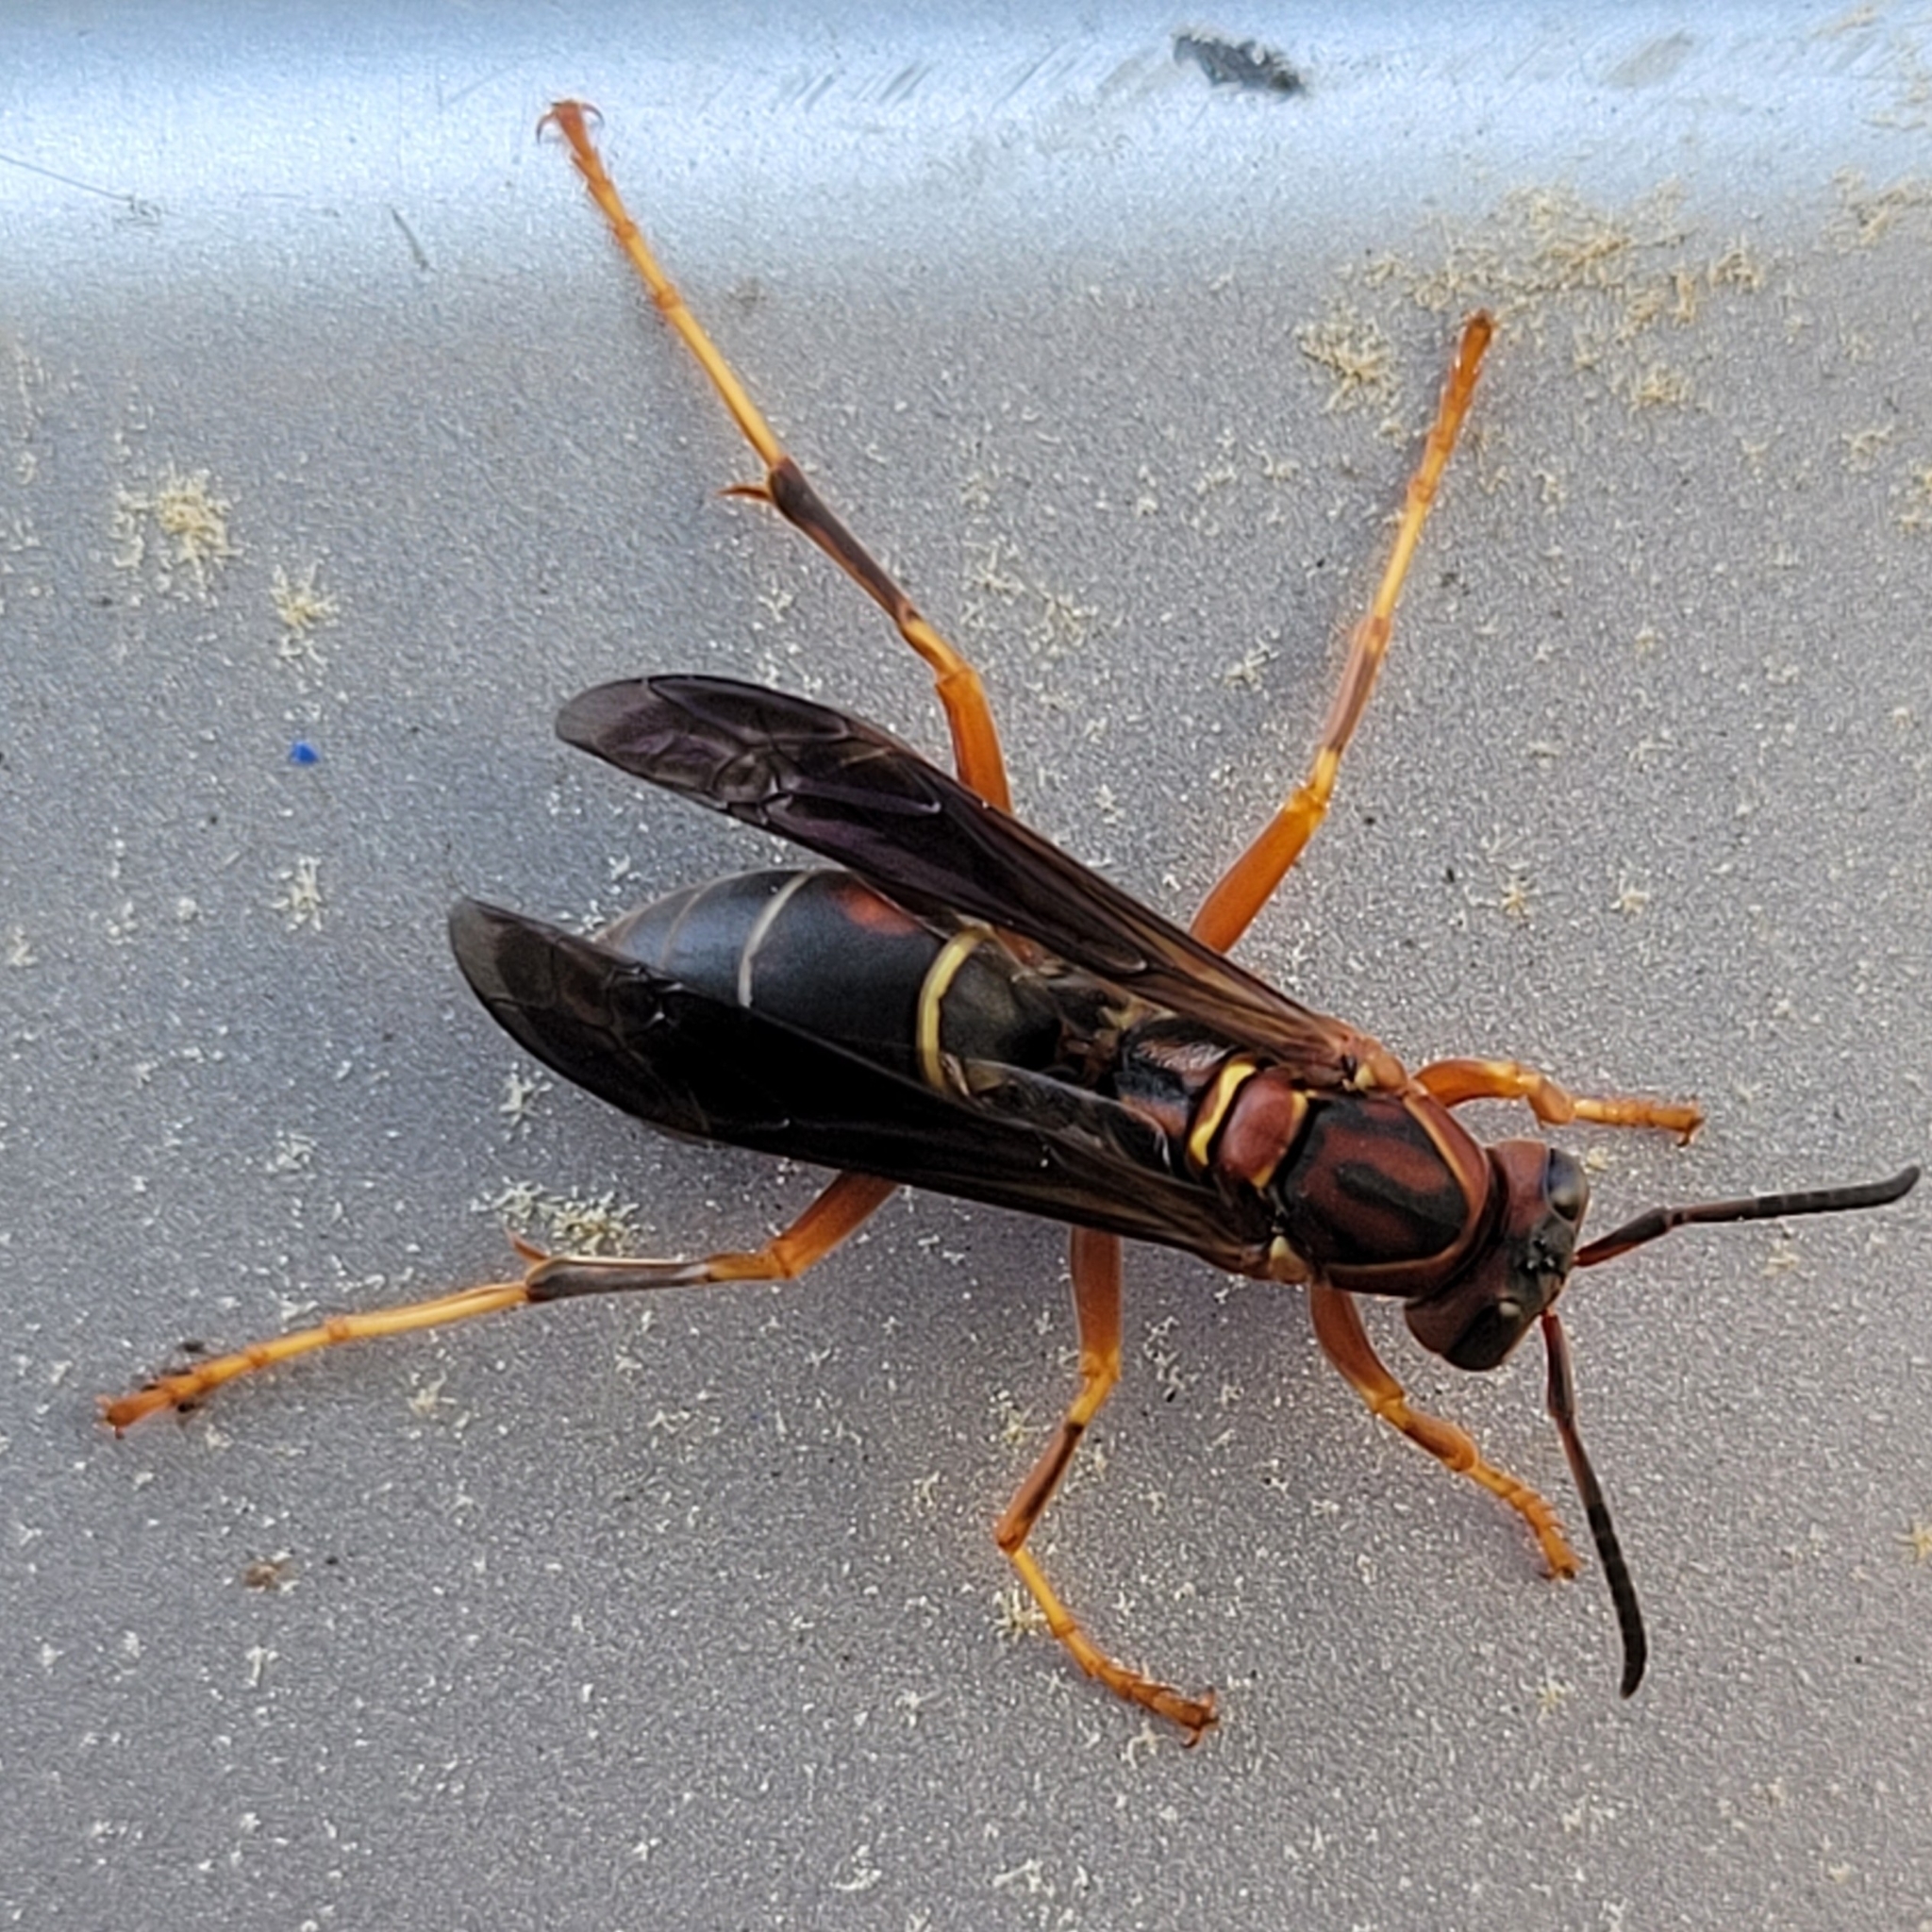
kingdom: Animalia
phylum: Arthropoda
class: Insecta
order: Hymenoptera
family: Eumenidae
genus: Polistes
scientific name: Polistes fuscatus
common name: Dark paper wasp
